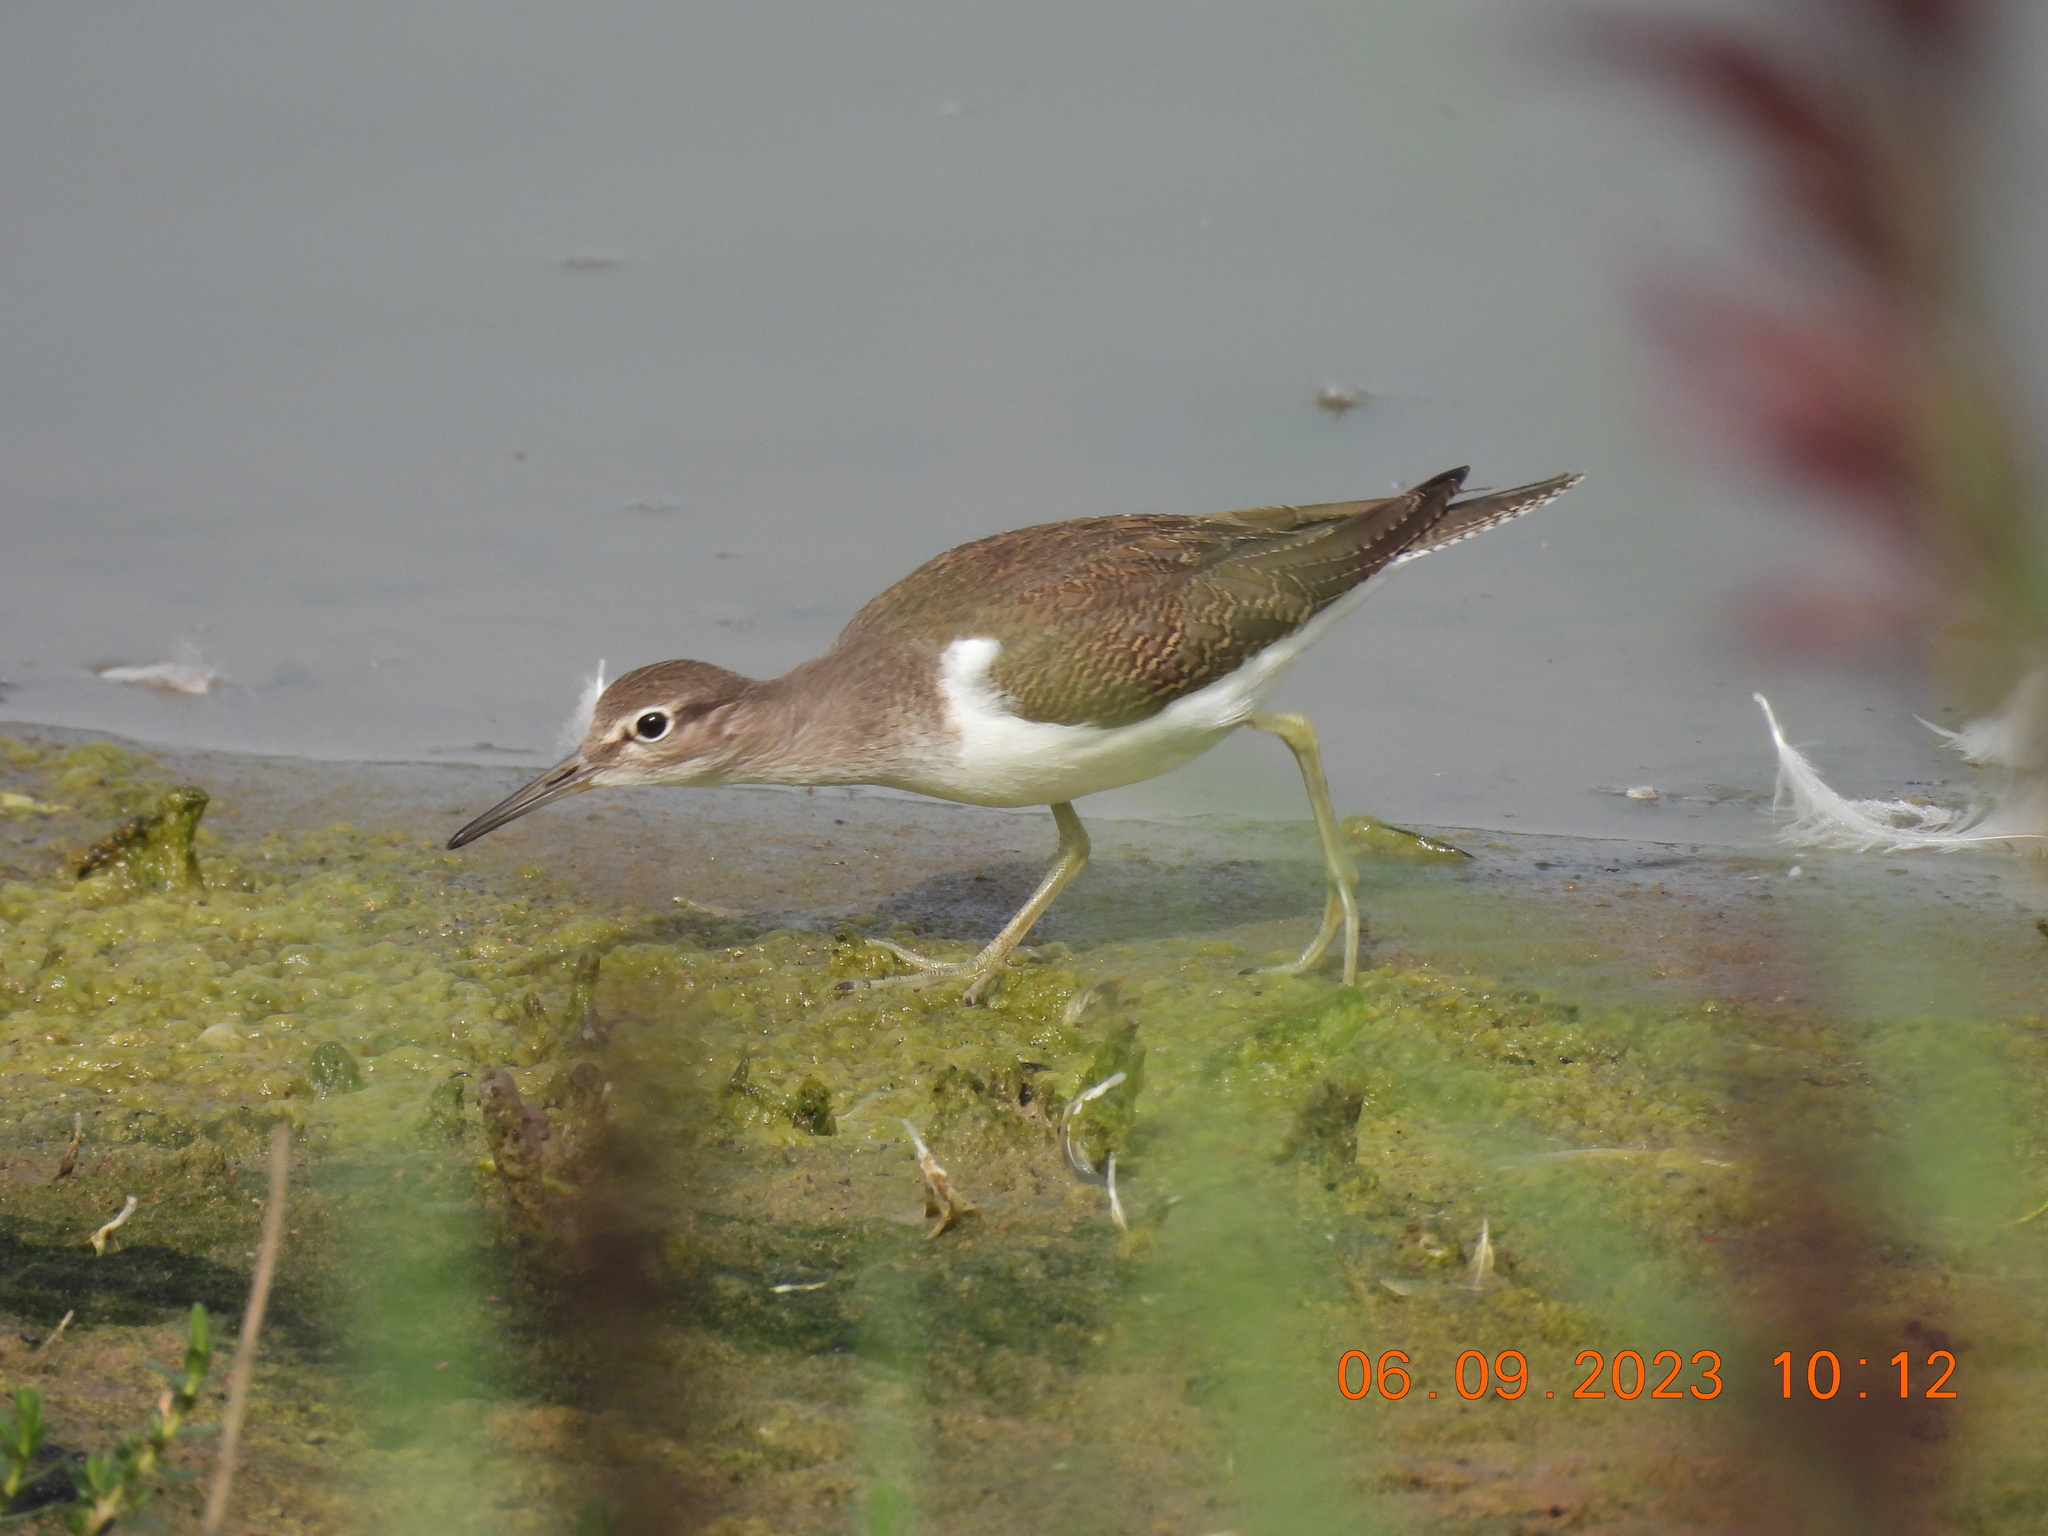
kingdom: Animalia
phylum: Chordata
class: Aves
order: Charadriiformes
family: Scolopacidae
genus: Actitis
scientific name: Actitis hypoleucos
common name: Common sandpiper
